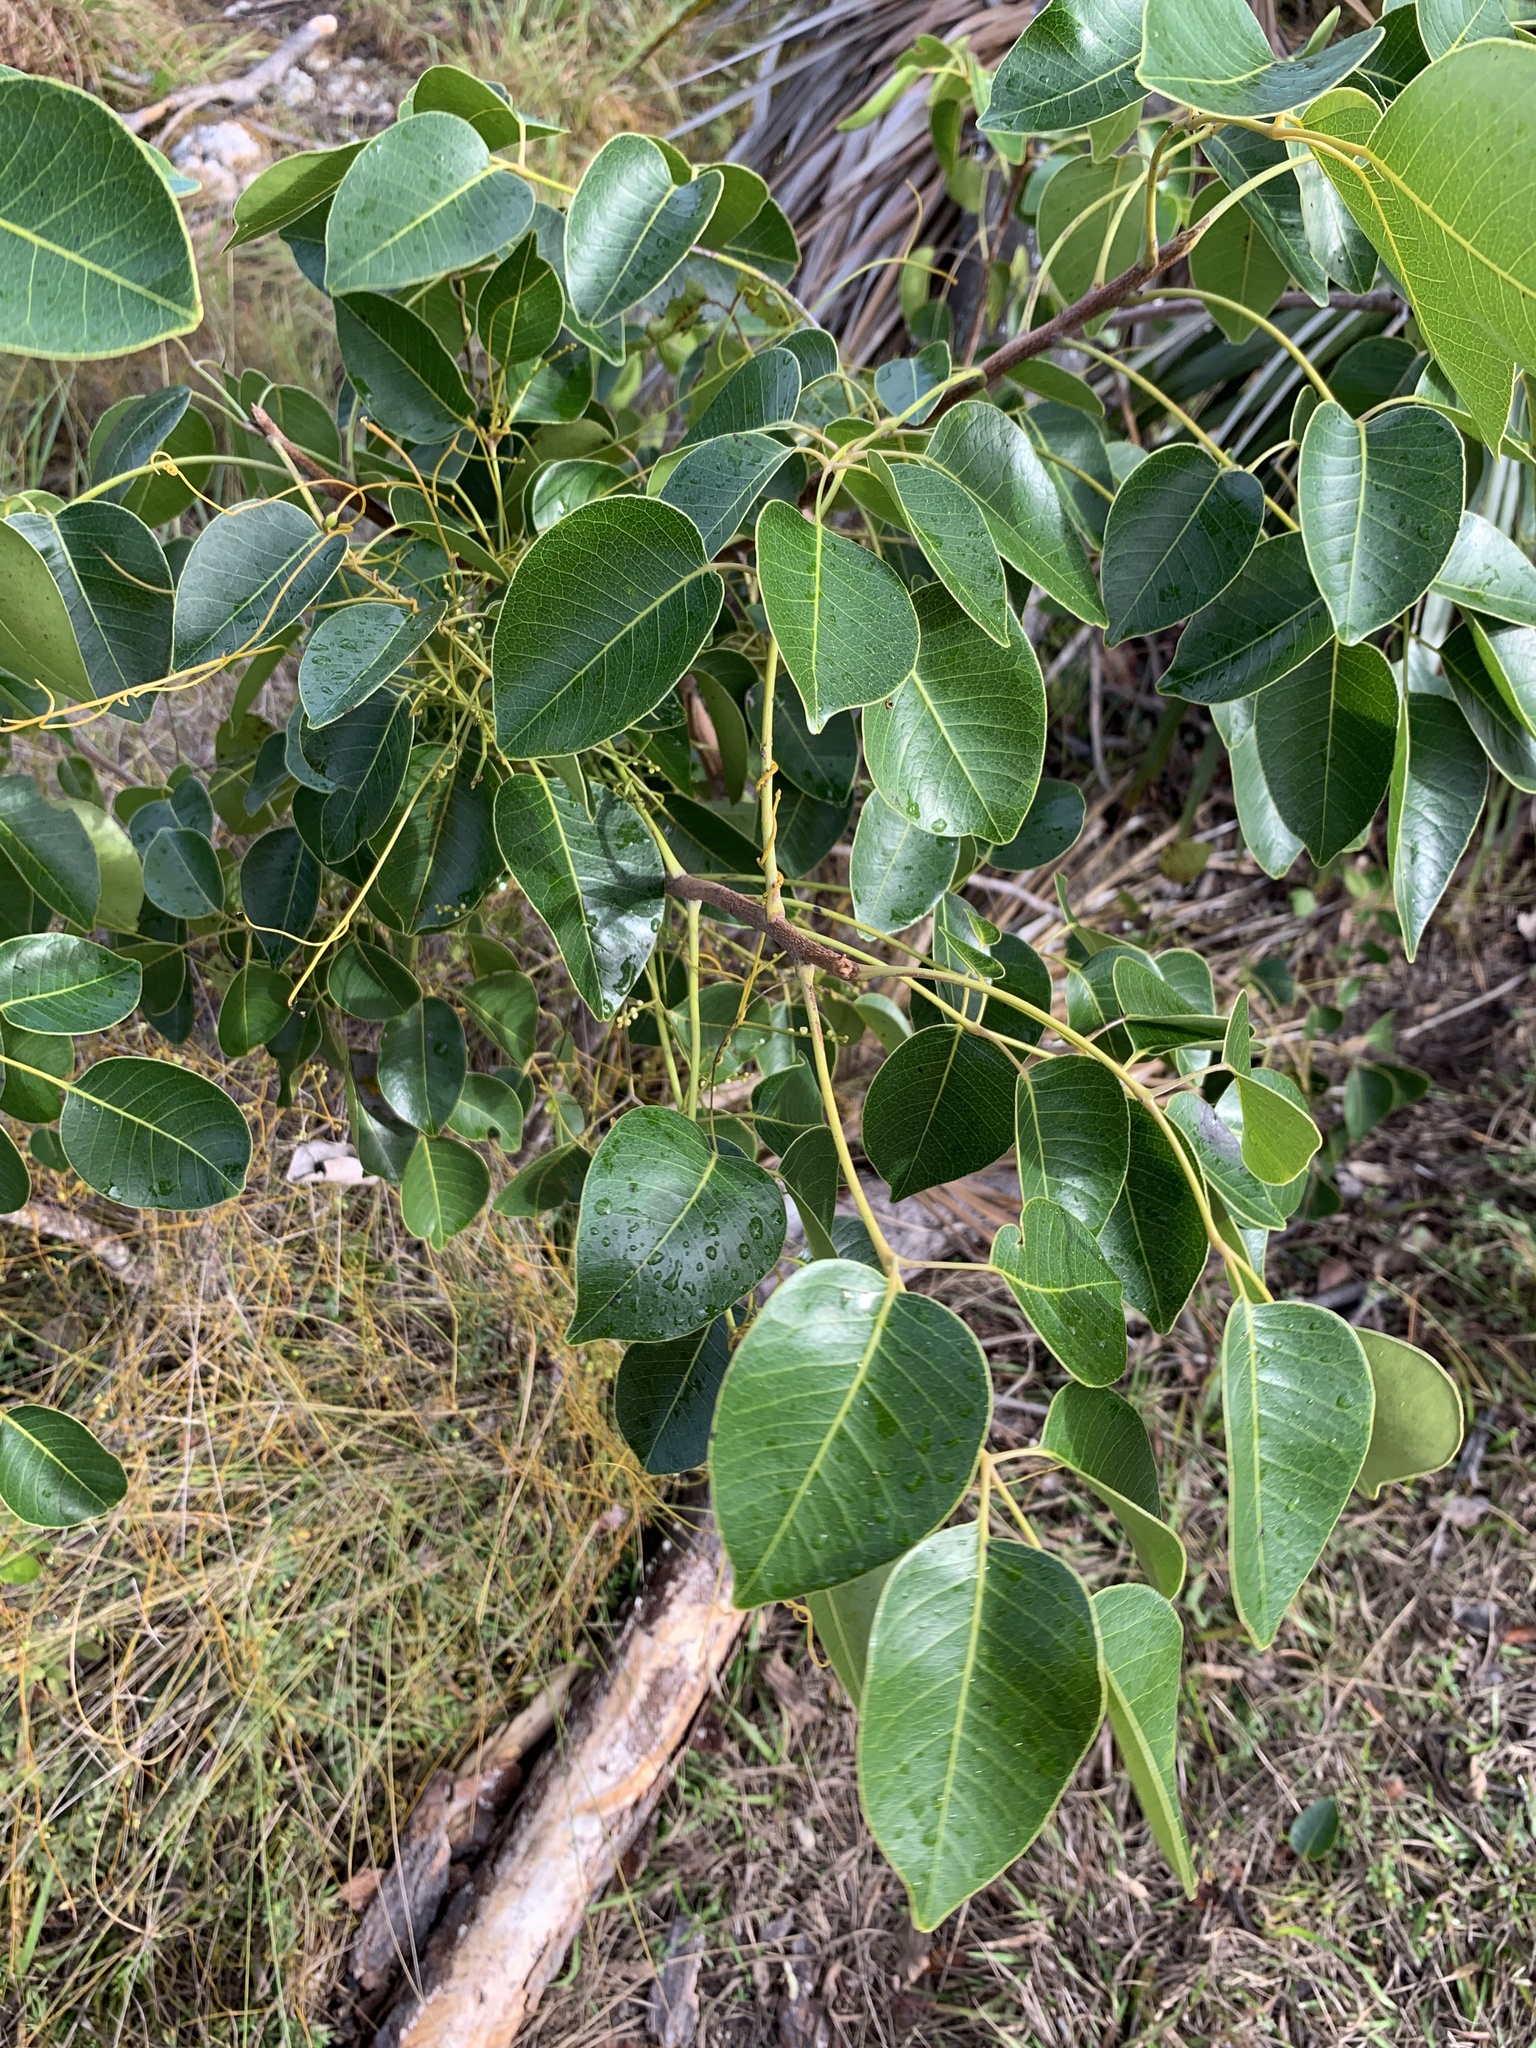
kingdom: Plantae
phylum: Tracheophyta
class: Magnoliopsida
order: Sapindales
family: Anacardiaceae
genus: Metopium
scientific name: Metopium toxiferum
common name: Florida poisontree
